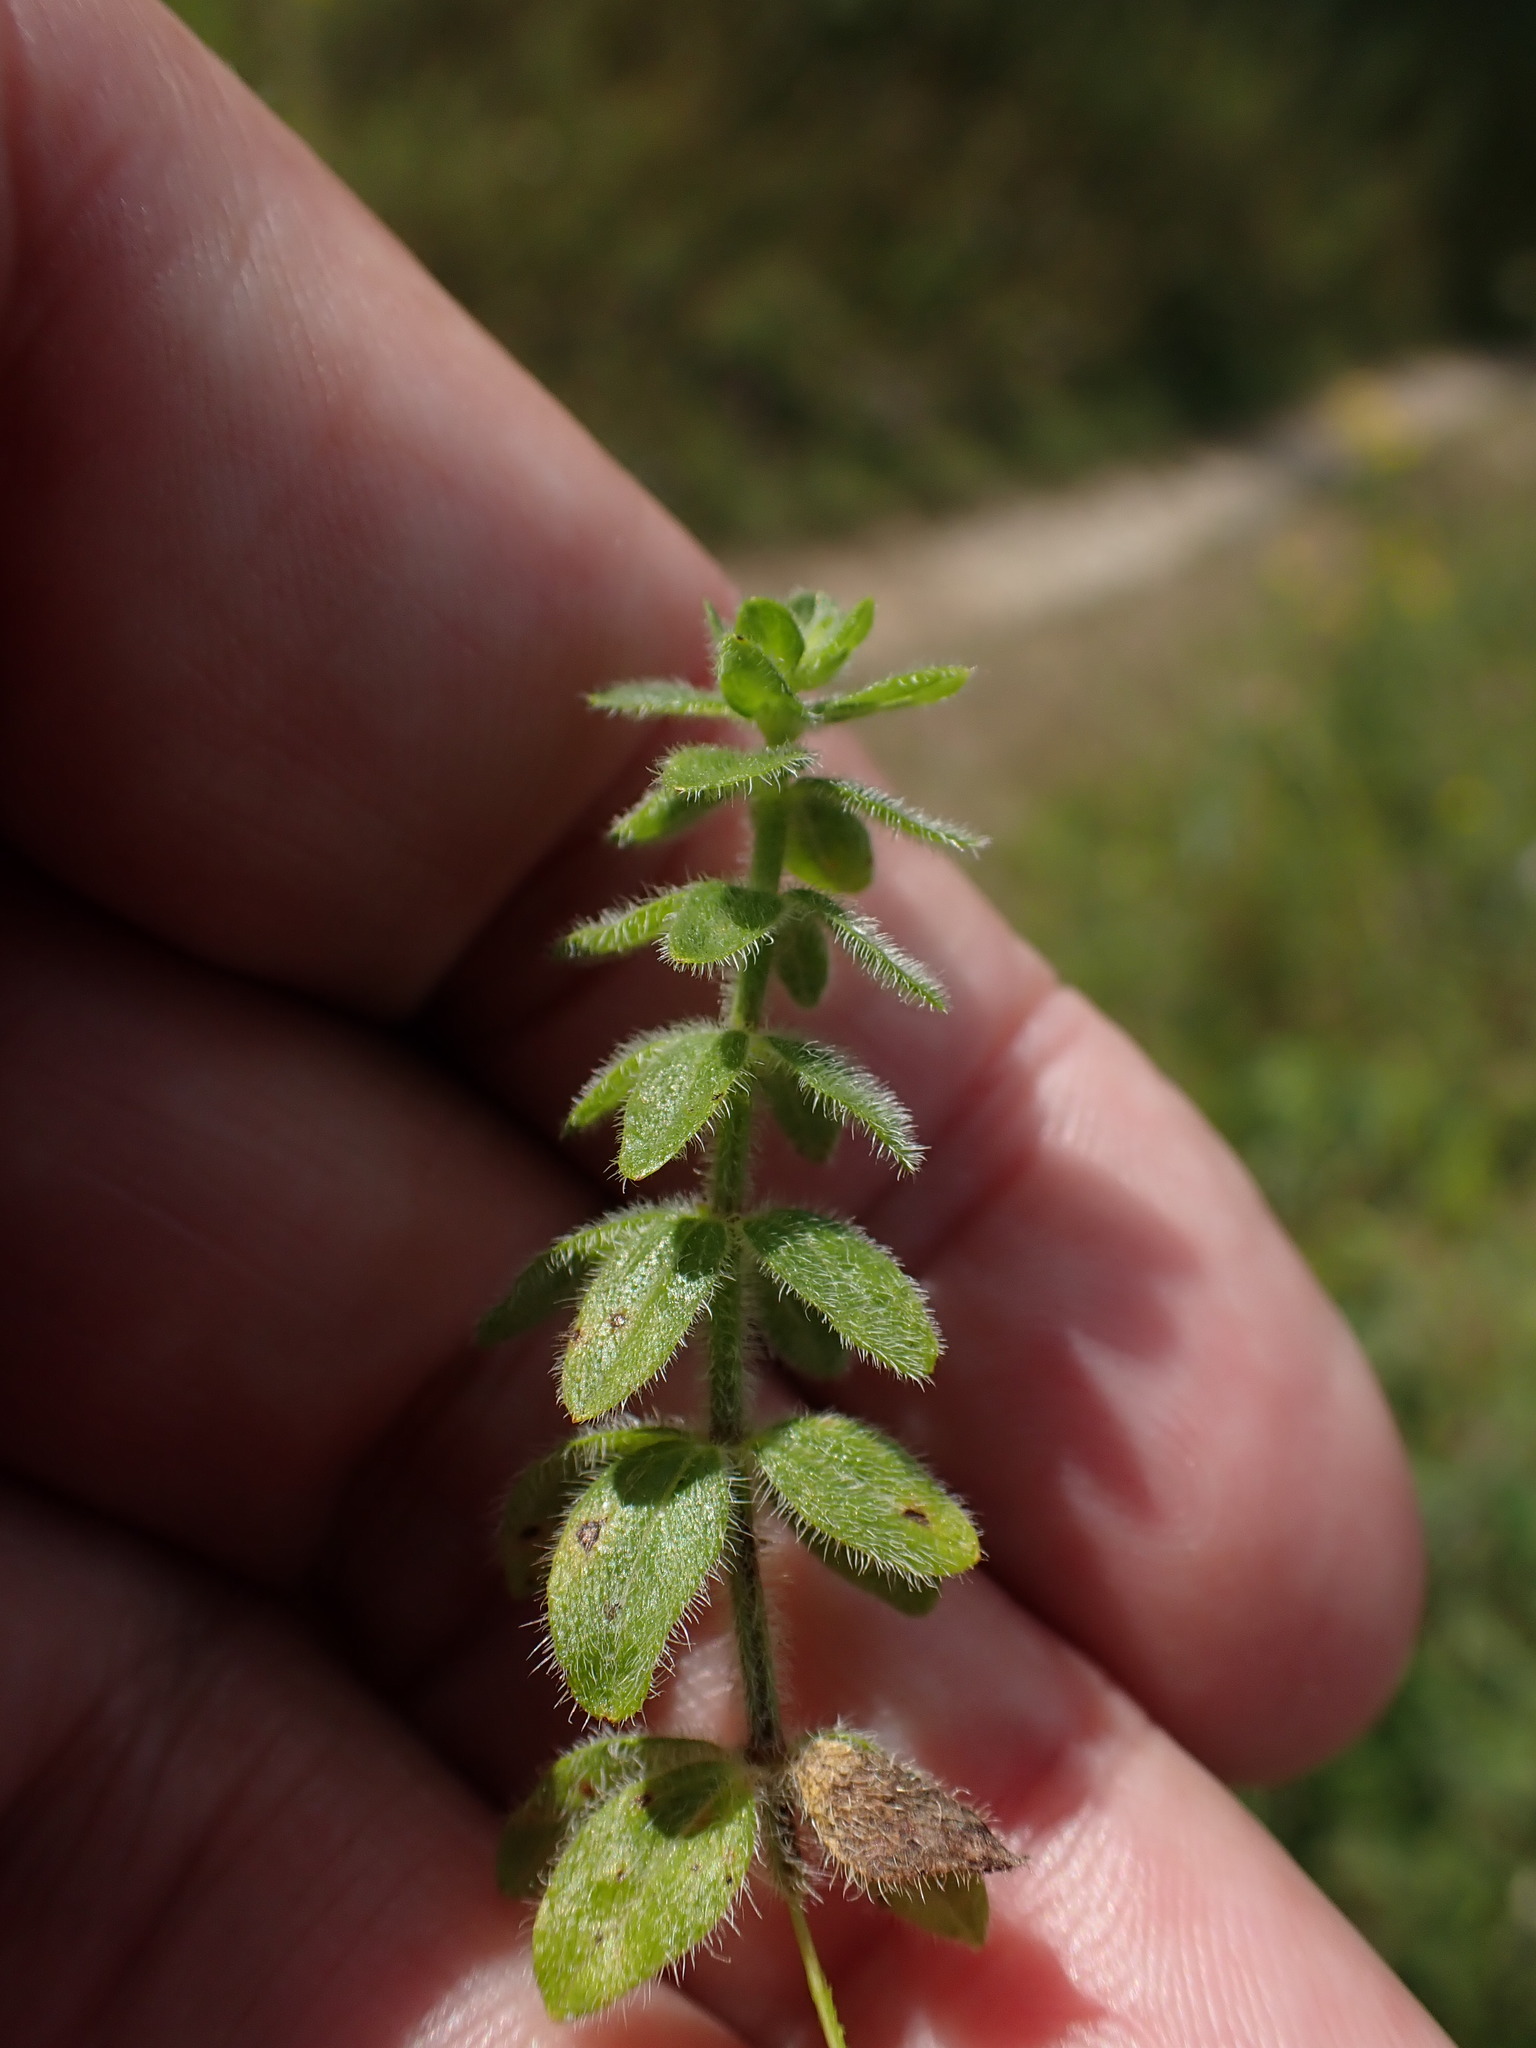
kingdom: Plantae
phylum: Tracheophyta
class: Magnoliopsida
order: Gentianales
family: Rubiaceae
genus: Cruciata
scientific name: Cruciata laevipes
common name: Crosswort
